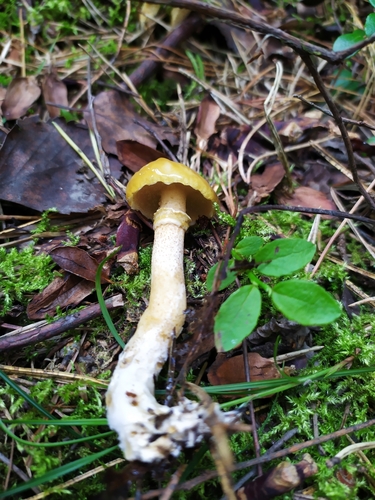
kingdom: Fungi
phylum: Basidiomycota
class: Agaricomycetes
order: Boletales
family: Suillaceae
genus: Suillus
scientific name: Suillus acidus
